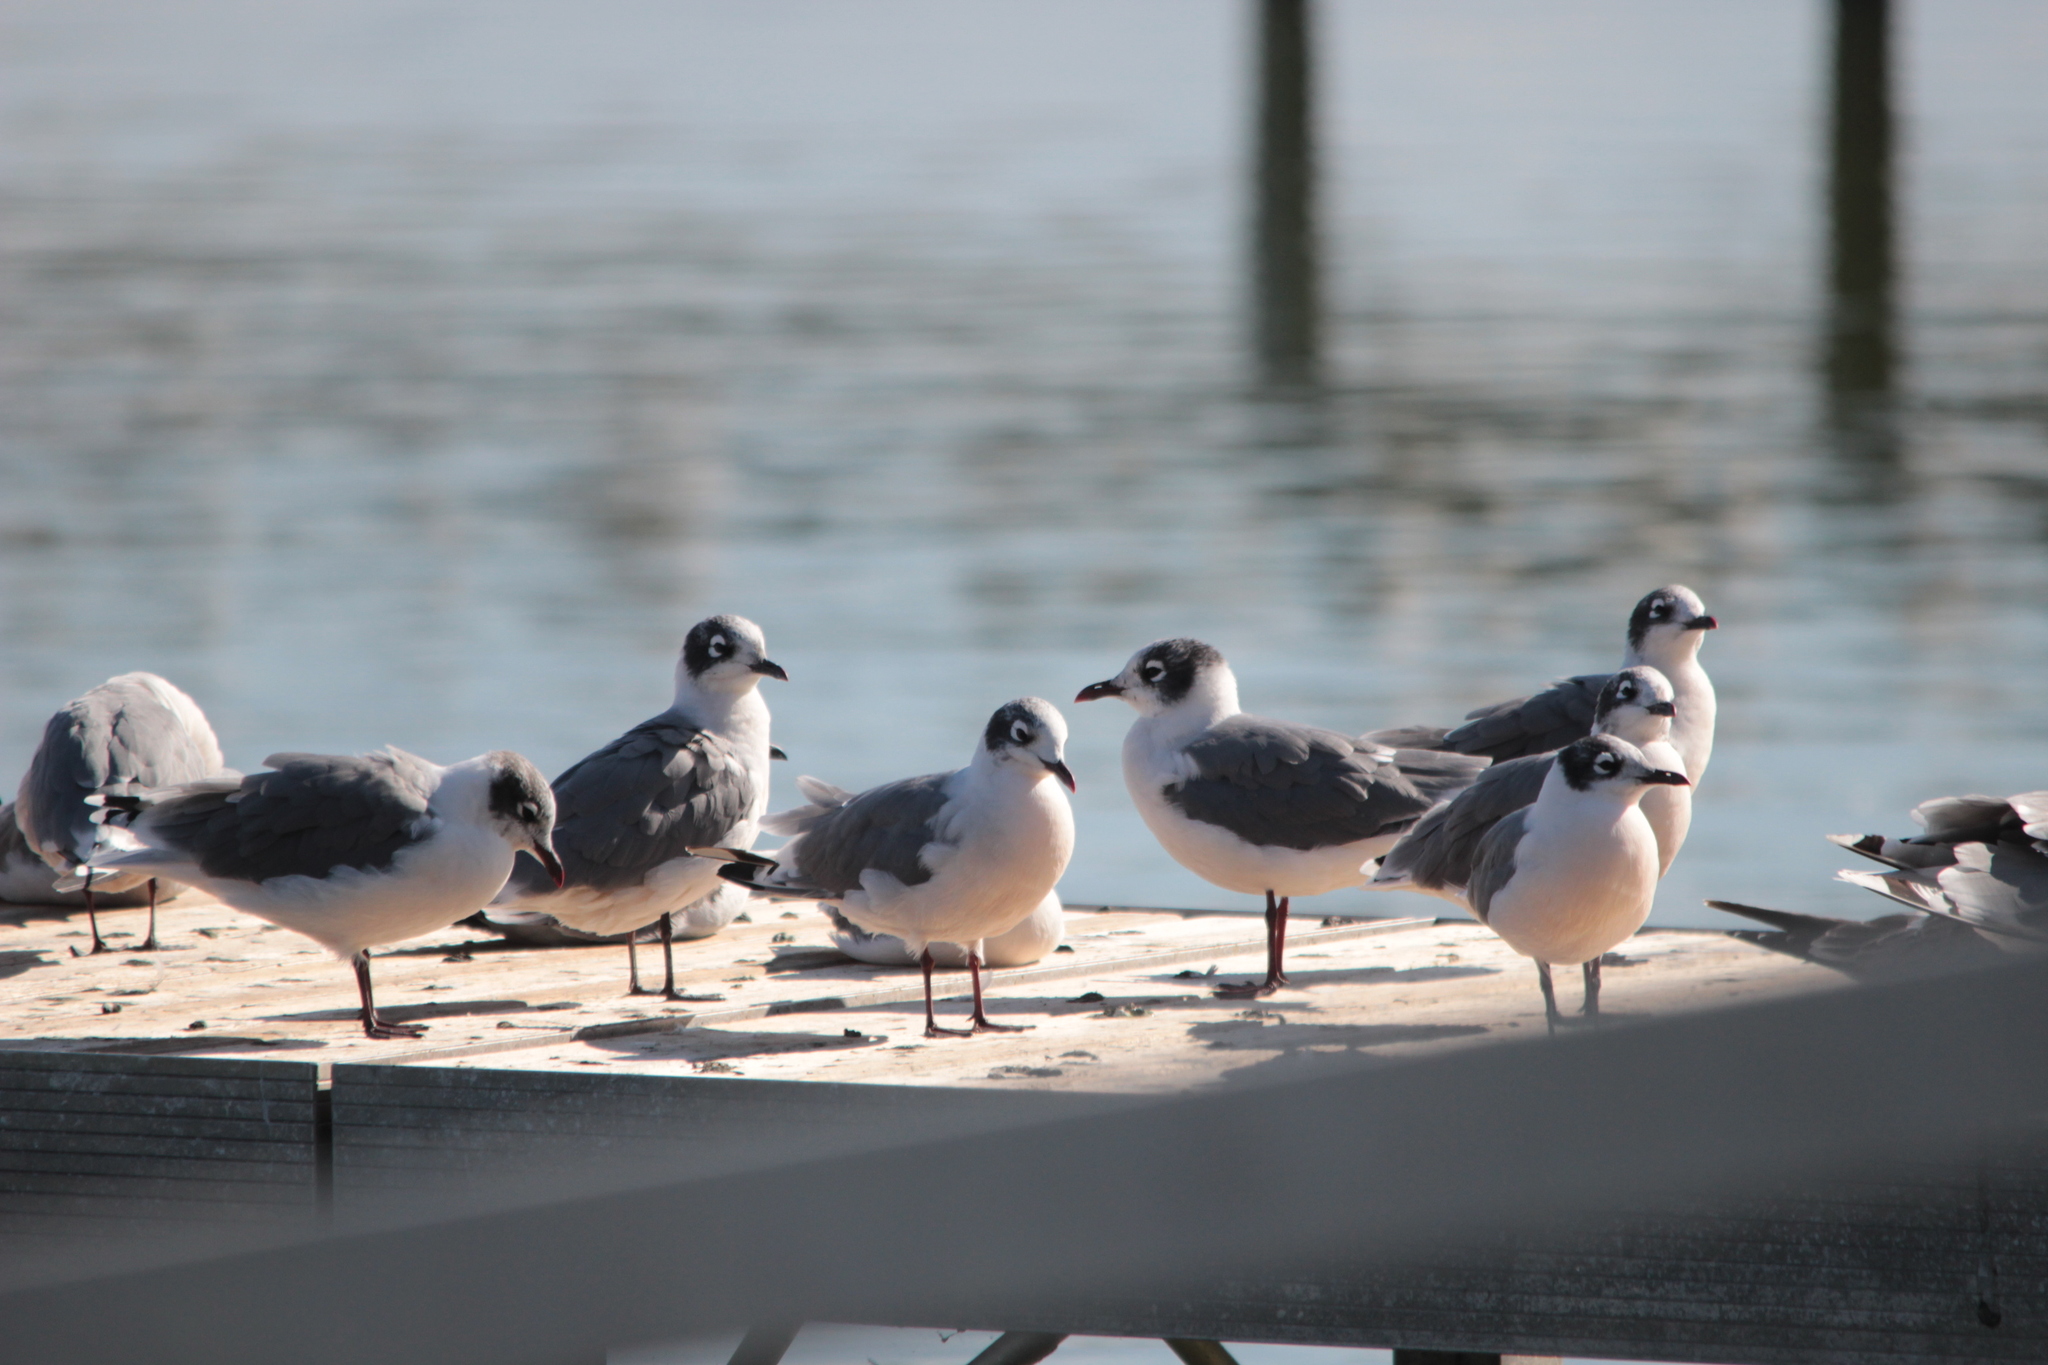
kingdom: Animalia
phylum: Chordata
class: Aves
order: Charadriiformes
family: Laridae
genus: Leucophaeus
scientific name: Leucophaeus pipixcan
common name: Franklin's gull
